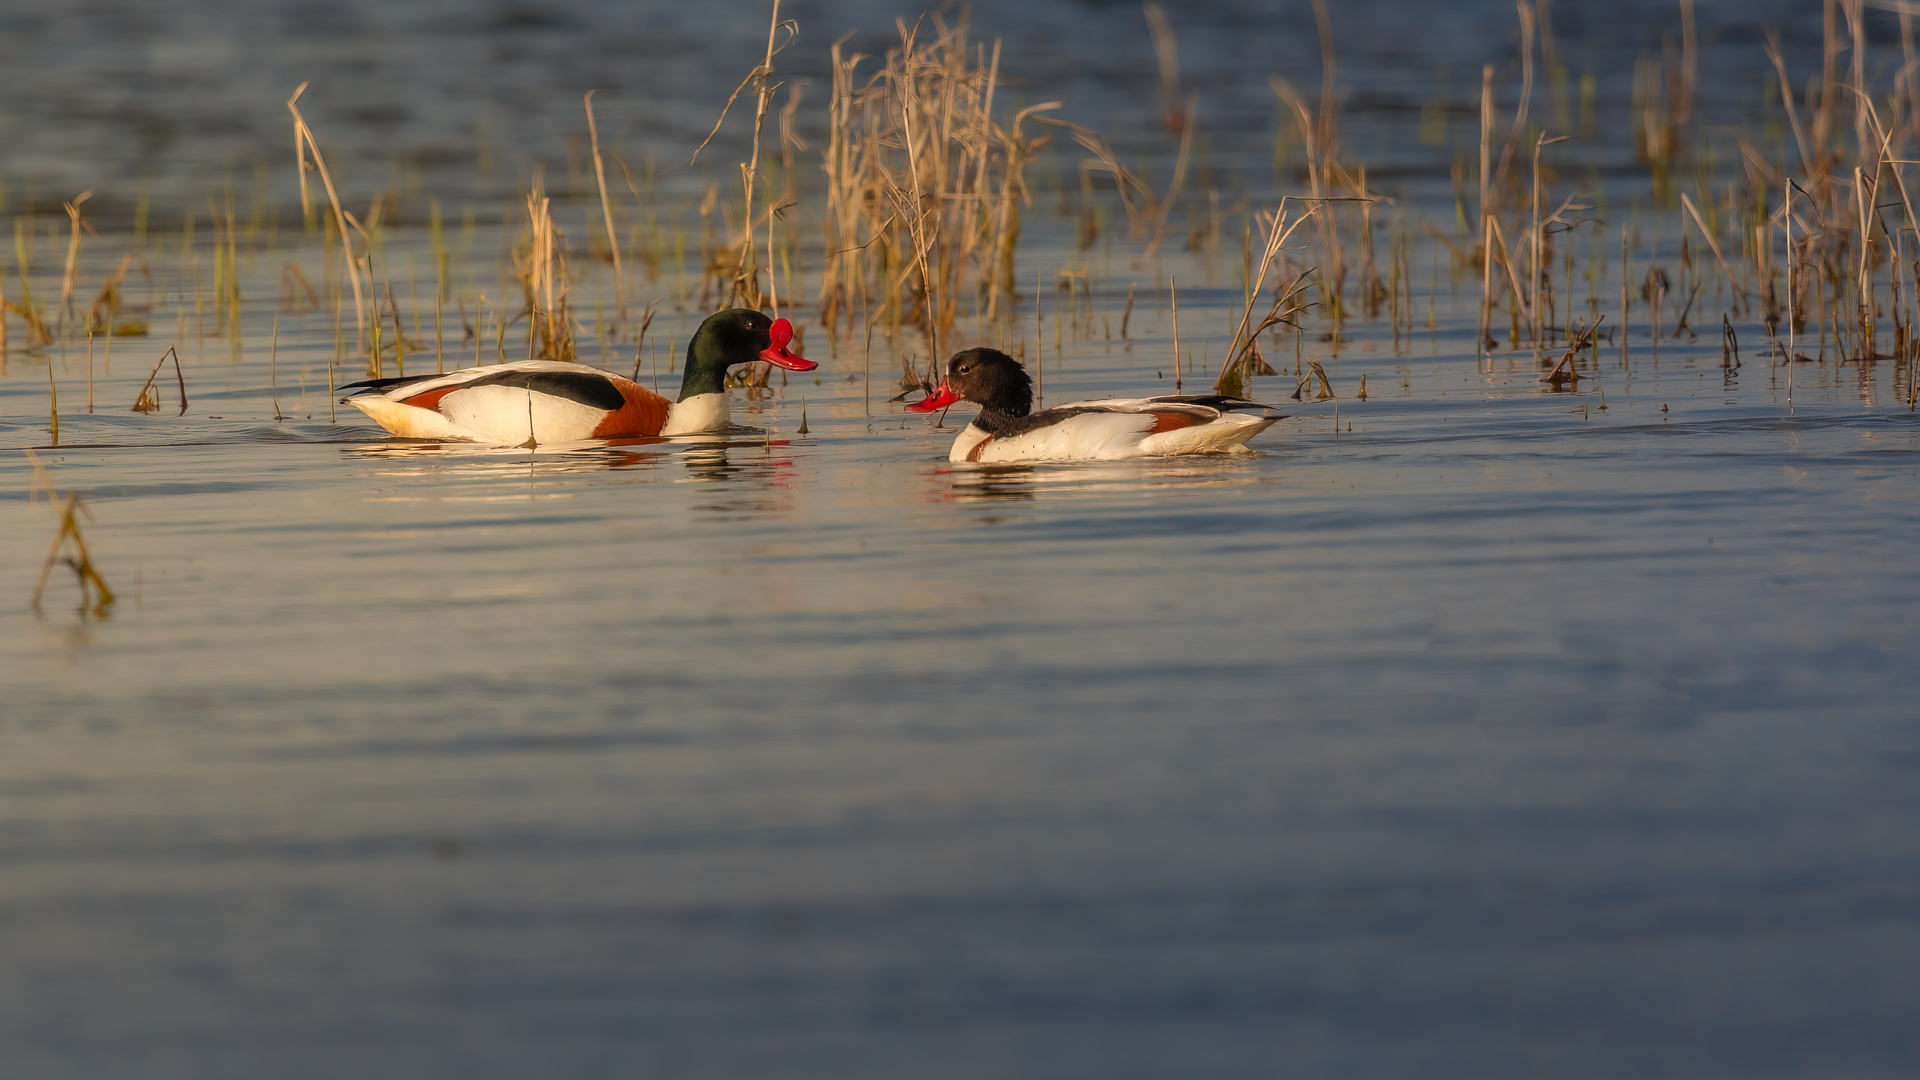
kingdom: Animalia
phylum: Chordata
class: Aves
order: Anseriformes
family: Anatidae
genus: Tadorna
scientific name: Tadorna tadorna
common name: Common shelduck
